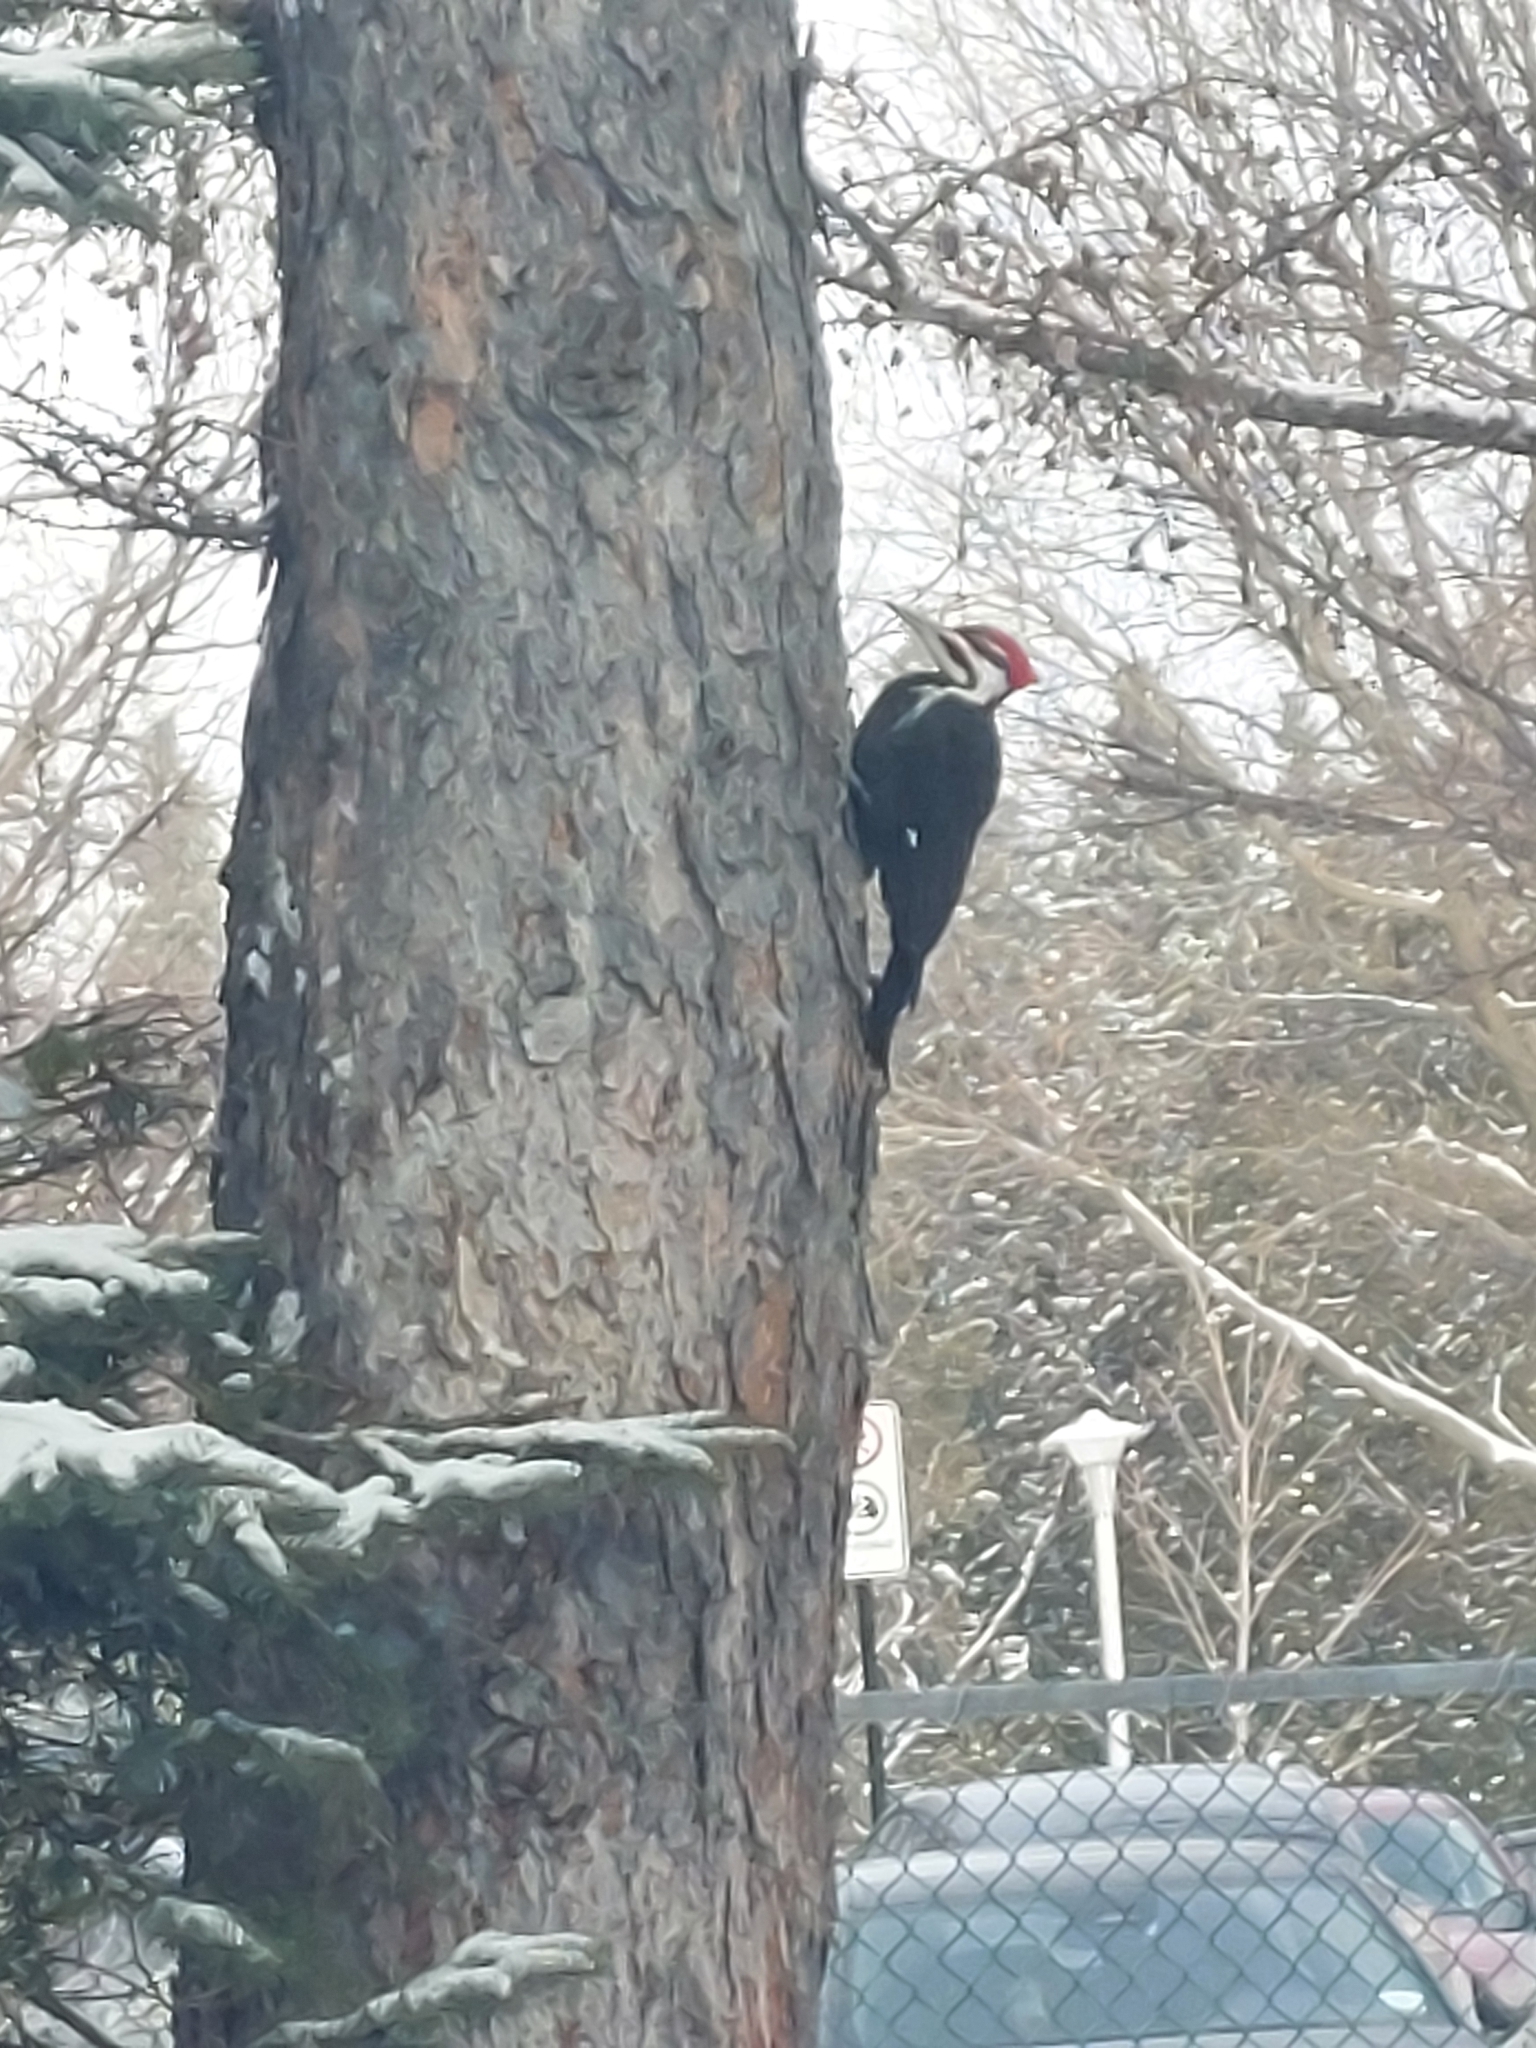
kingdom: Animalia
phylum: Chordata
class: Aves
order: Piciformes
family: Picidae
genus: Dryocopus
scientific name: Dryocopus pileatus
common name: Pileated woodpecker
